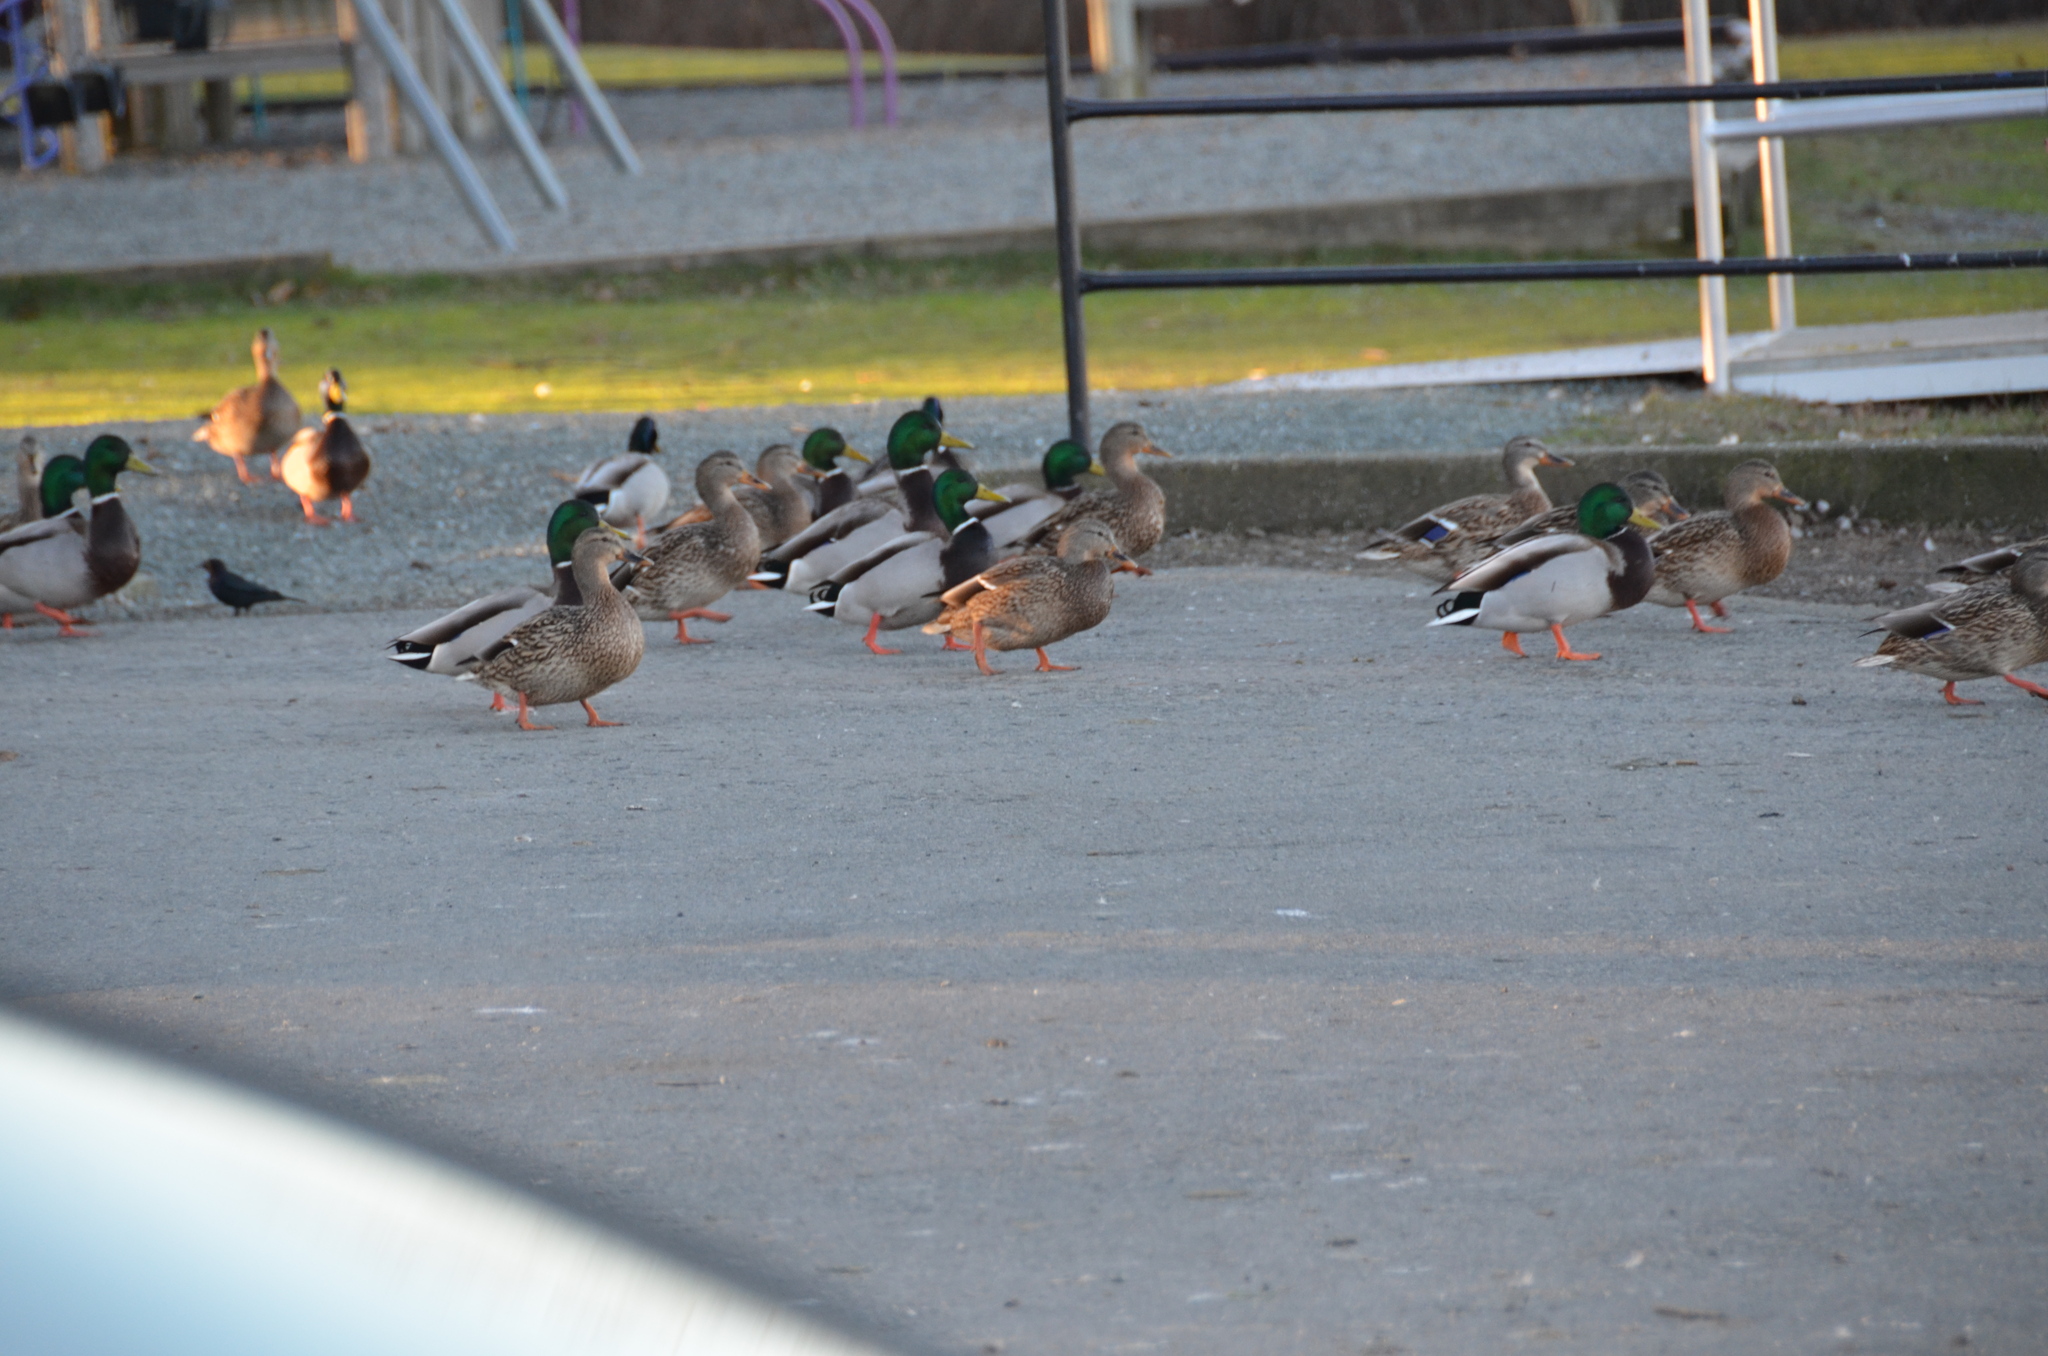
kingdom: Animalia
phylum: Chordata
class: Aves
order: Anseriformes
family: Anatidae
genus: Anas
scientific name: Anas platyrhynchos
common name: Mallard
